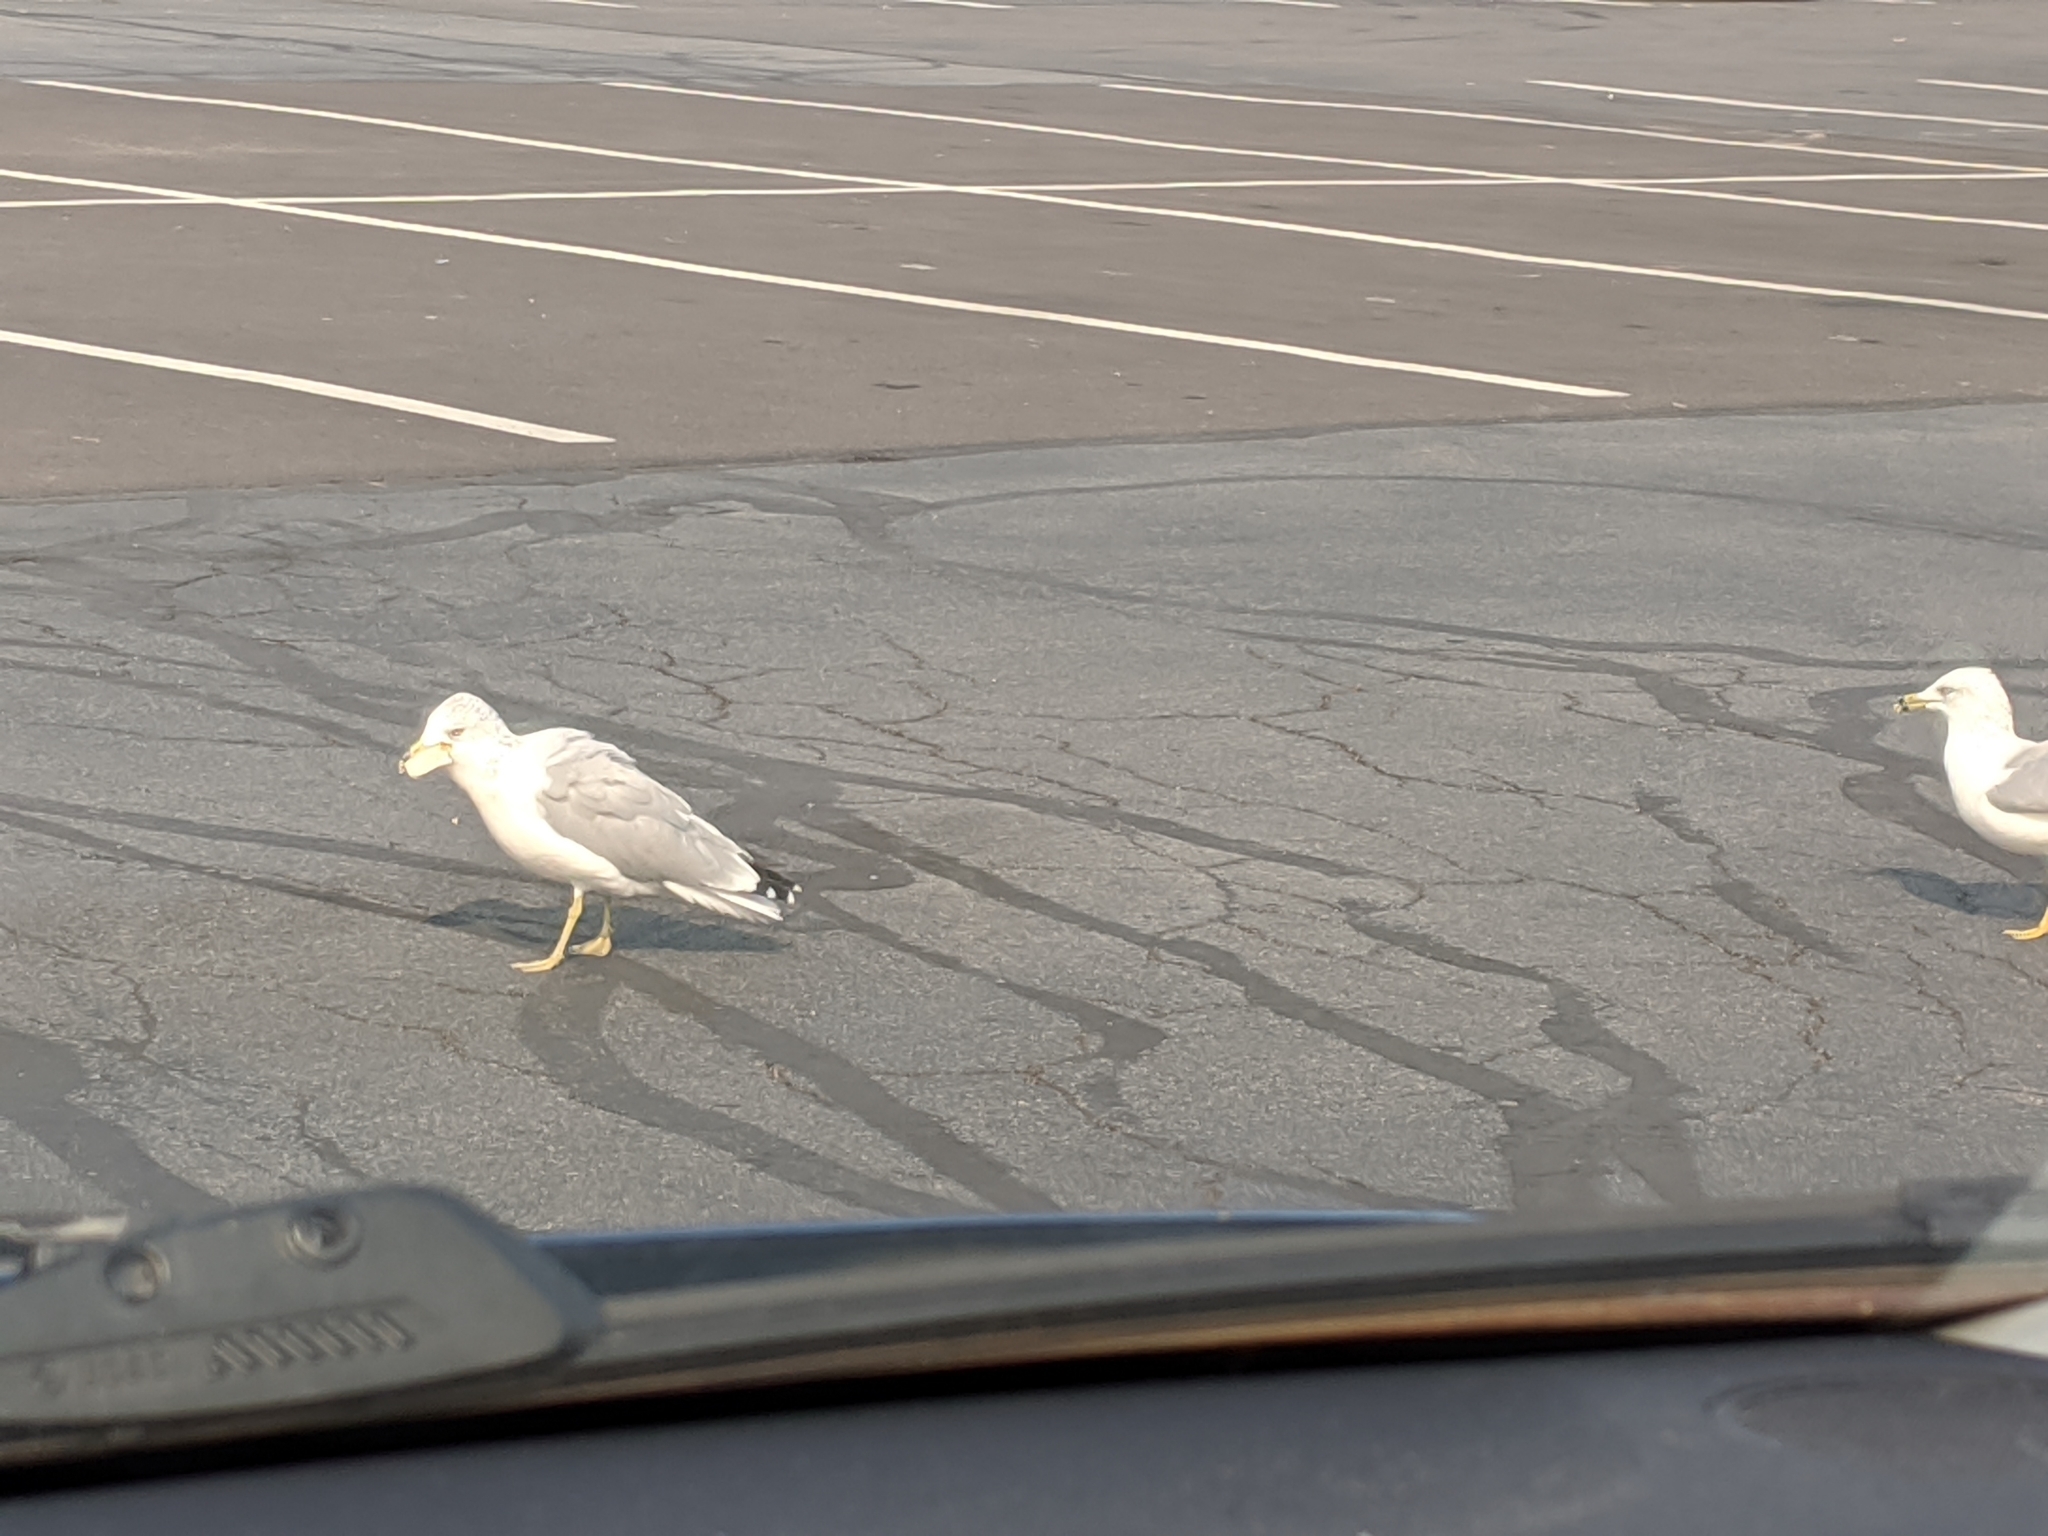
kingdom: Animalia
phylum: Chordata
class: Aves
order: Charadriiformes
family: Laridae
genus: Larus
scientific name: Larus delawarensis
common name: Ring-billed gull
